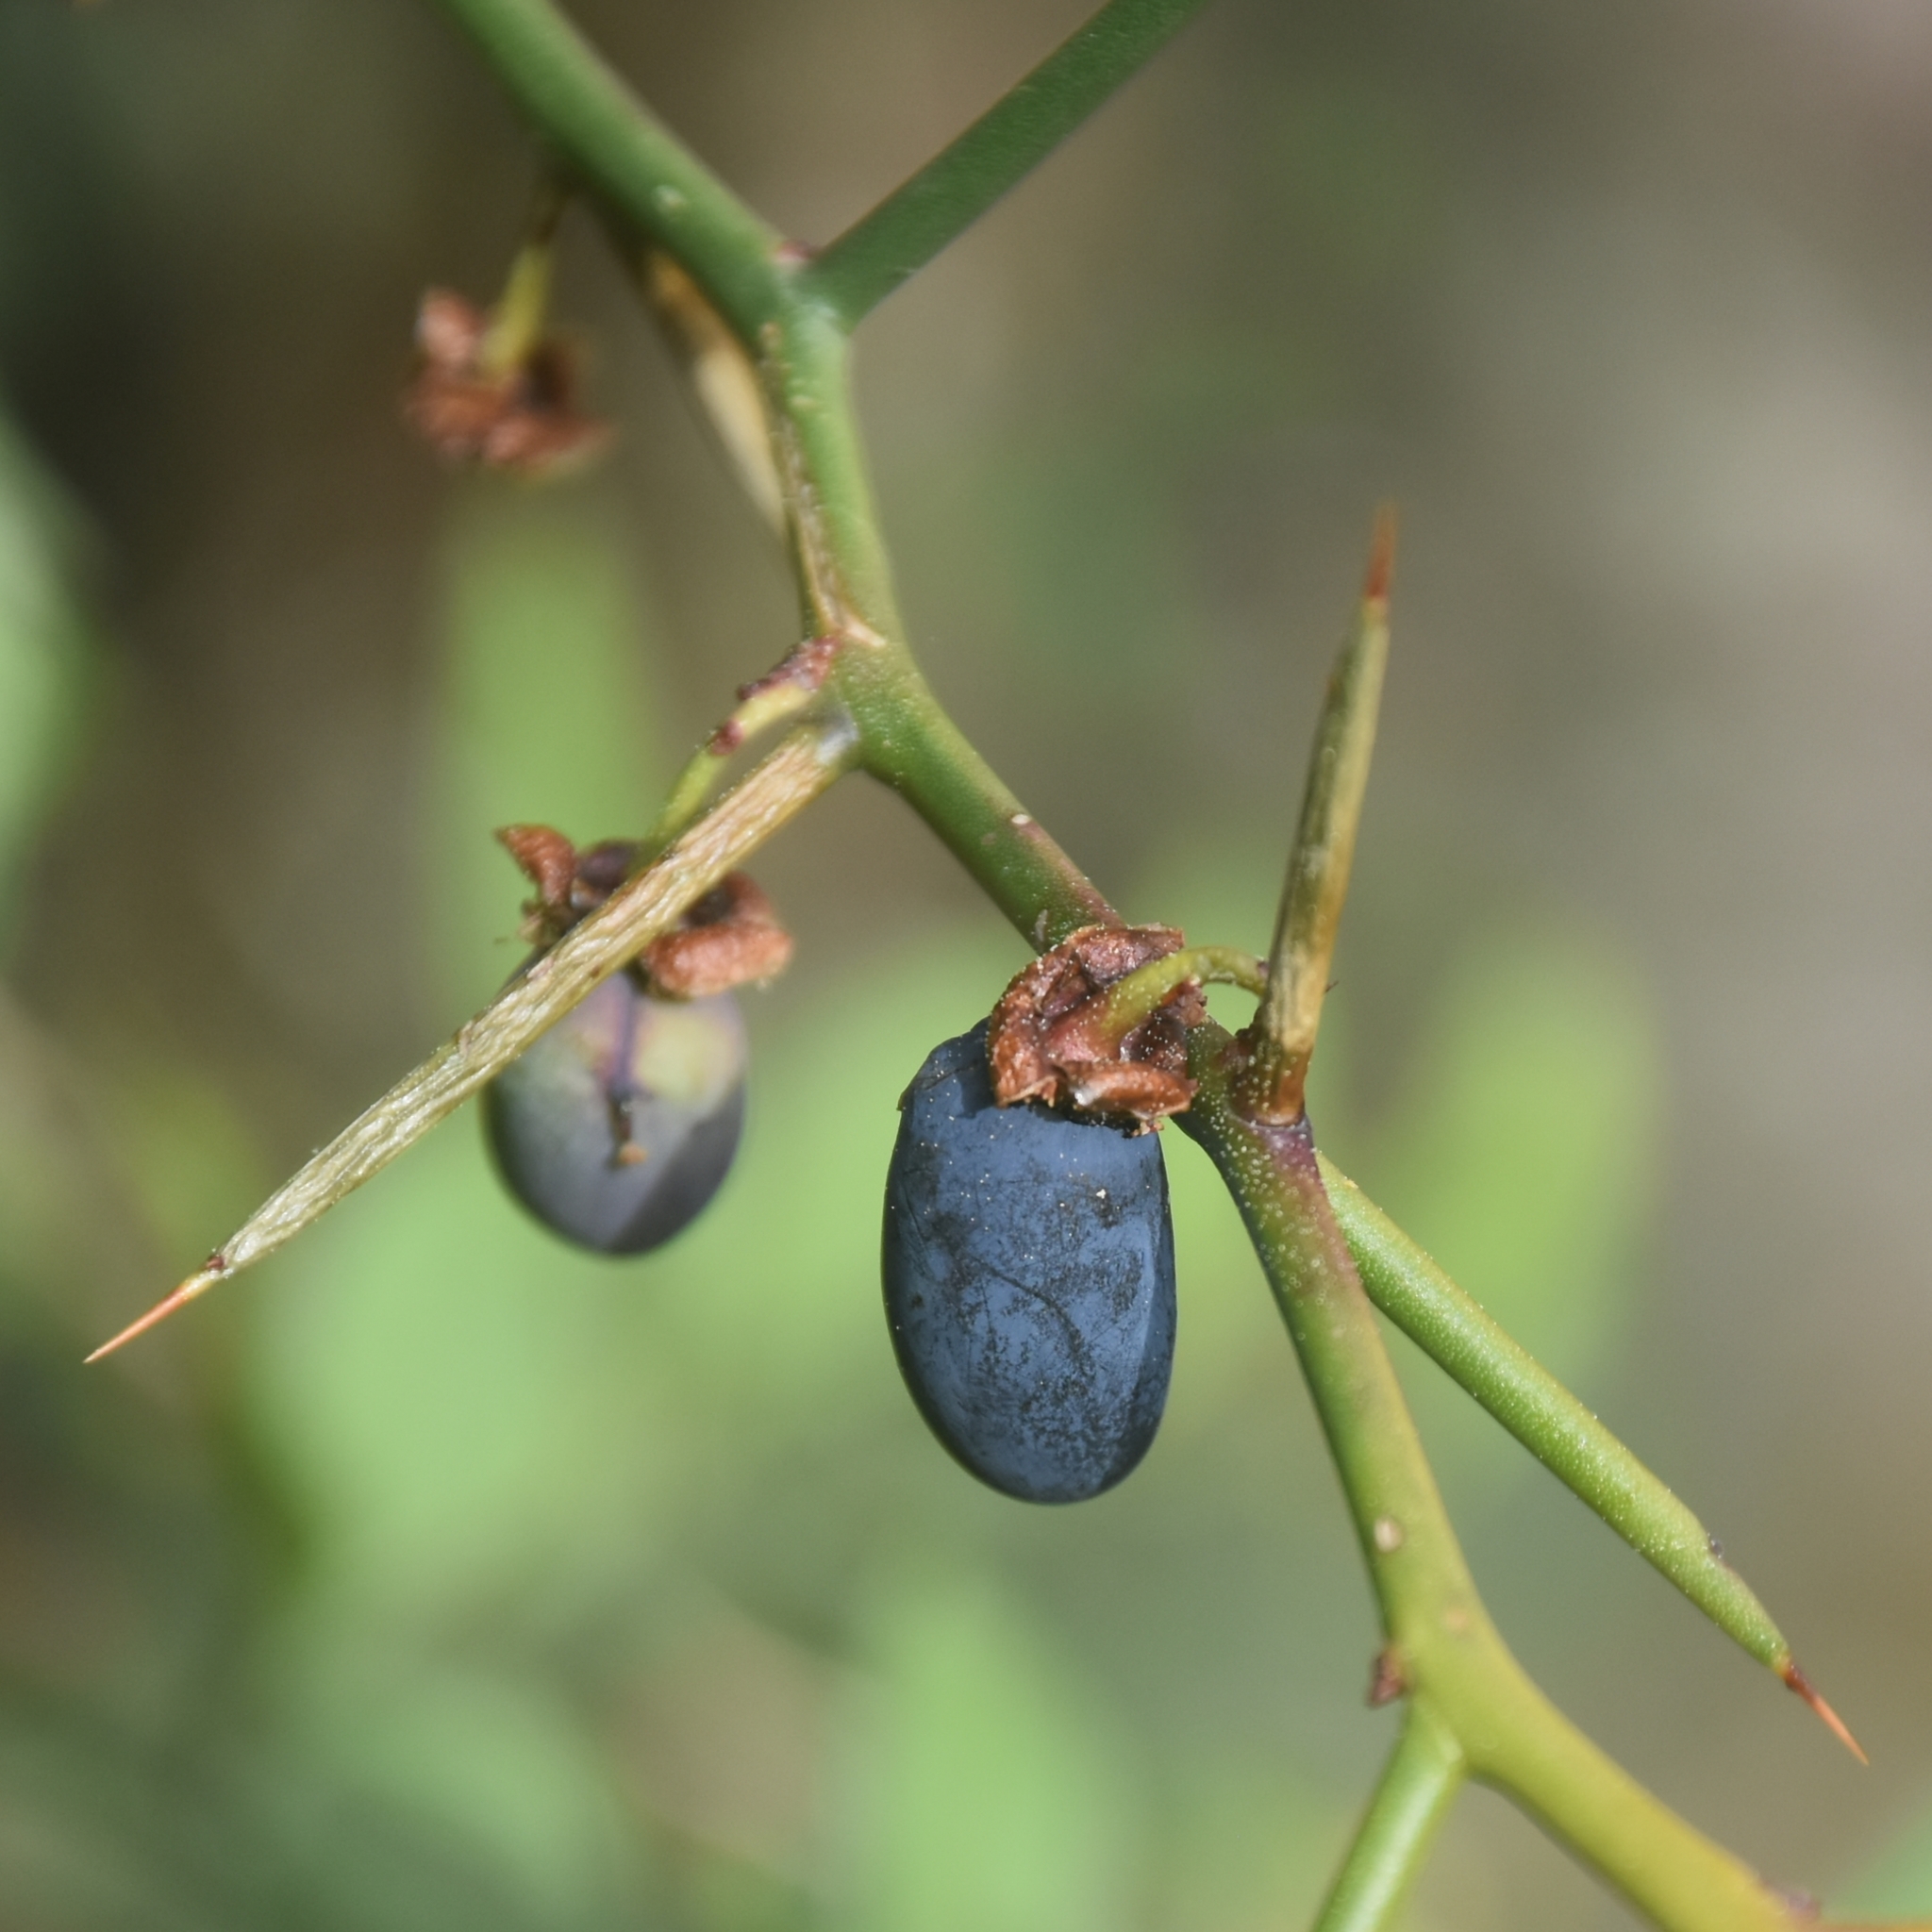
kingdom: Plantae
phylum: Tracheophyta
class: Magnoliopsida
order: Rosales
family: Rosaceae
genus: Prinsepia
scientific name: Prinsepia utilis
